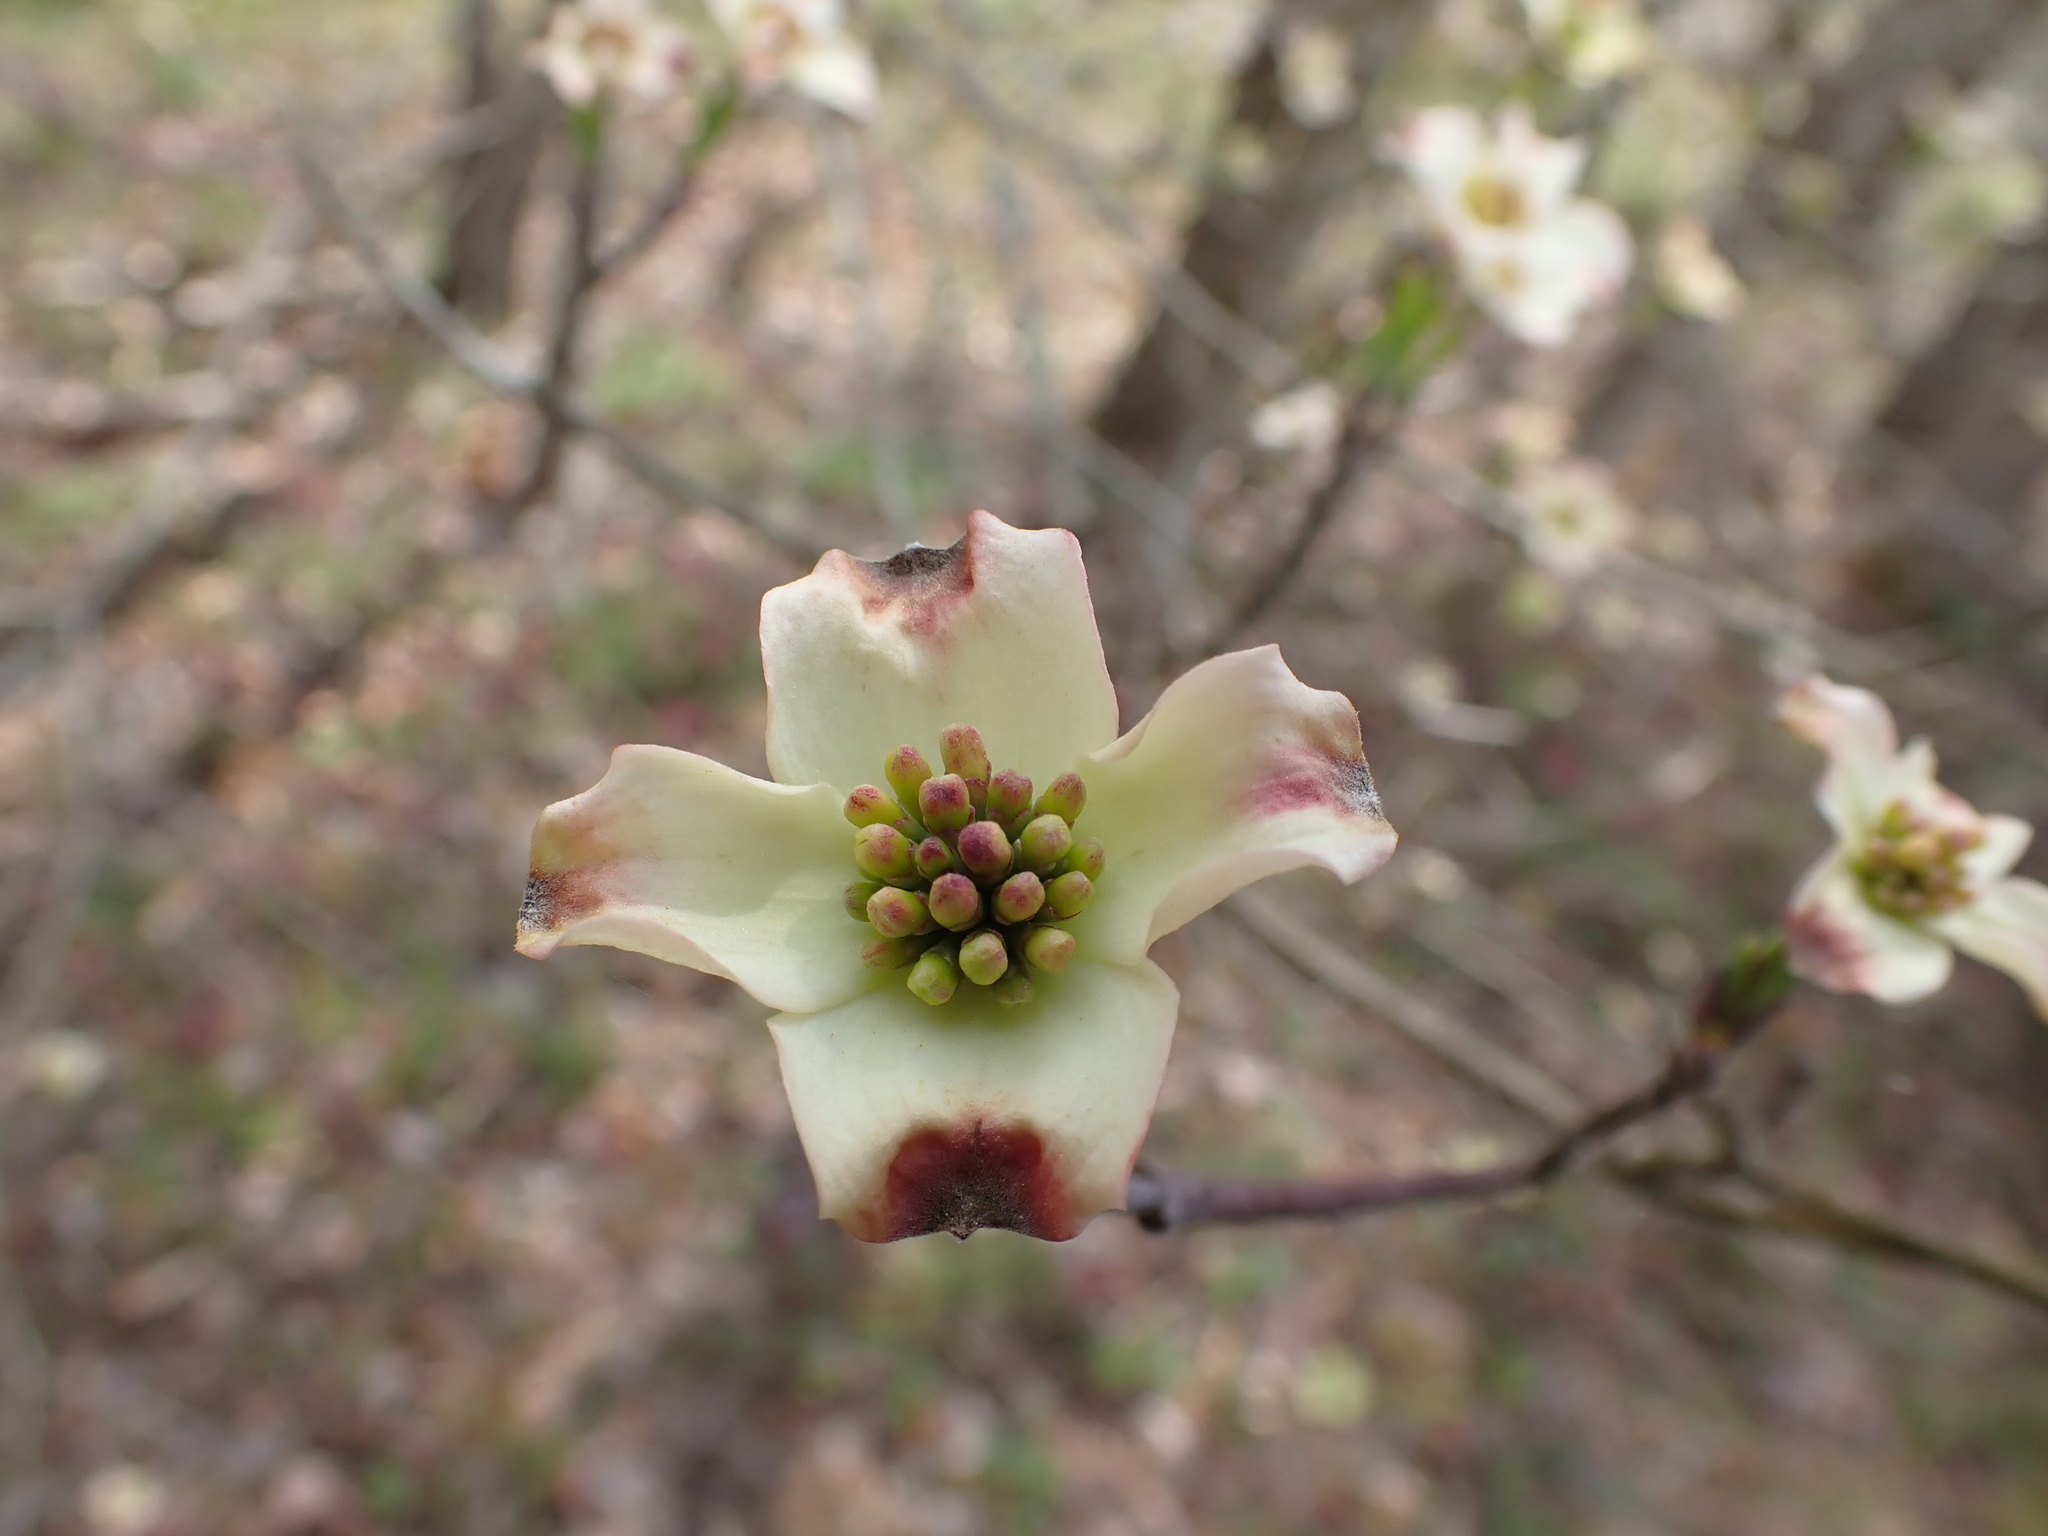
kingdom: Plantae
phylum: Tracheophyta
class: Magnoliopsida
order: Cornales
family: Cornaceae
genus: Cornus
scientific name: Cornus florida
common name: Flowering dogwood
